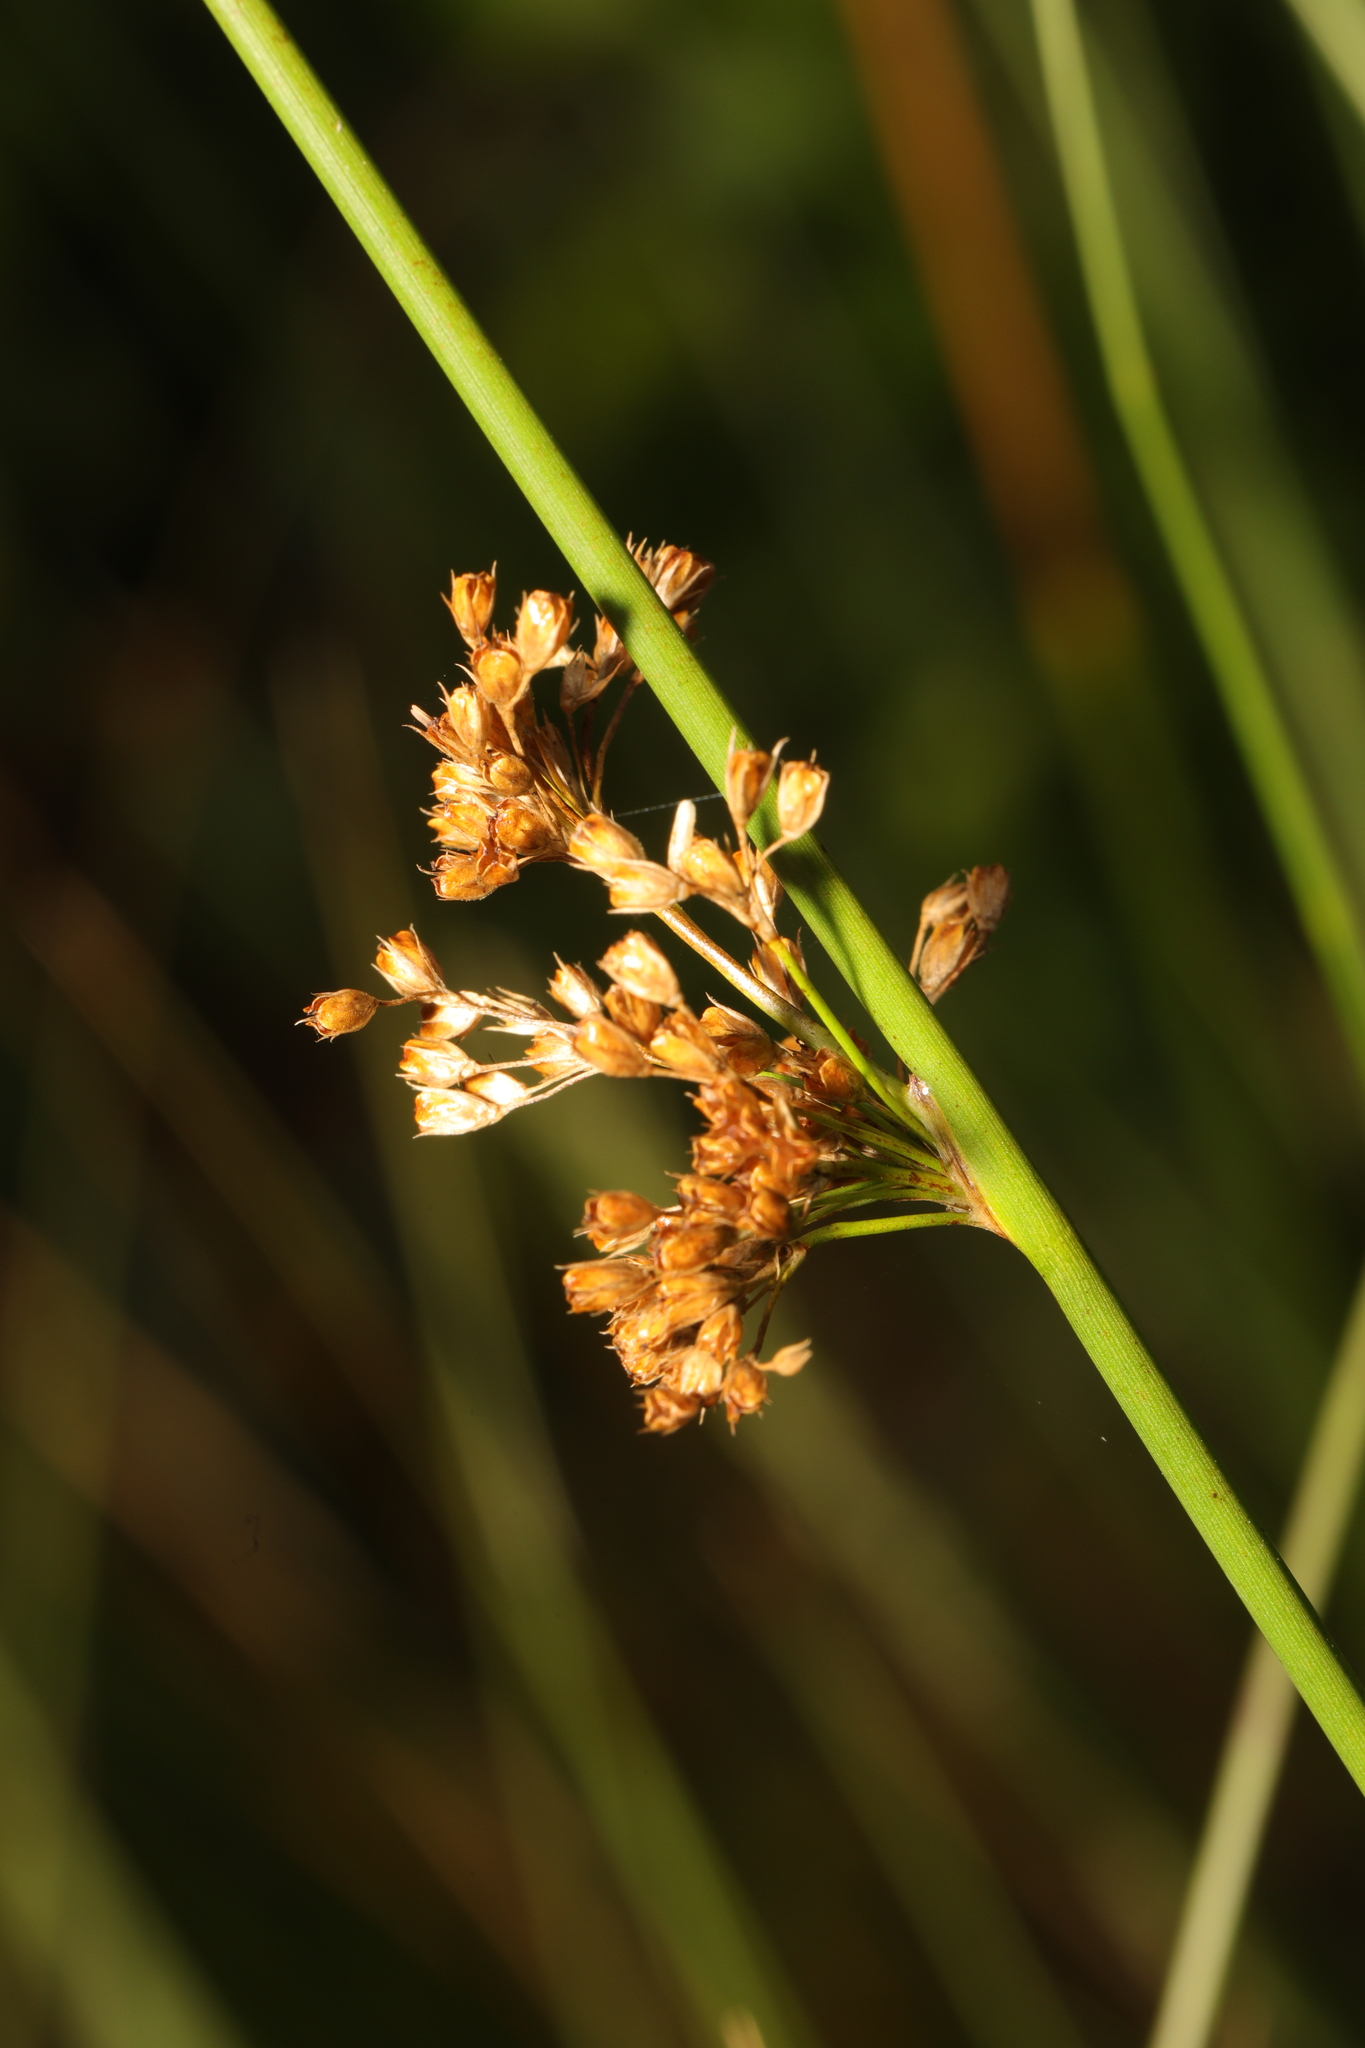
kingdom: Plantae
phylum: Tracheophyta
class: Liliopsida
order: Poales
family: Juncaceae
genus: Juncus
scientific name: Juncus effusus
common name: Soft rush
